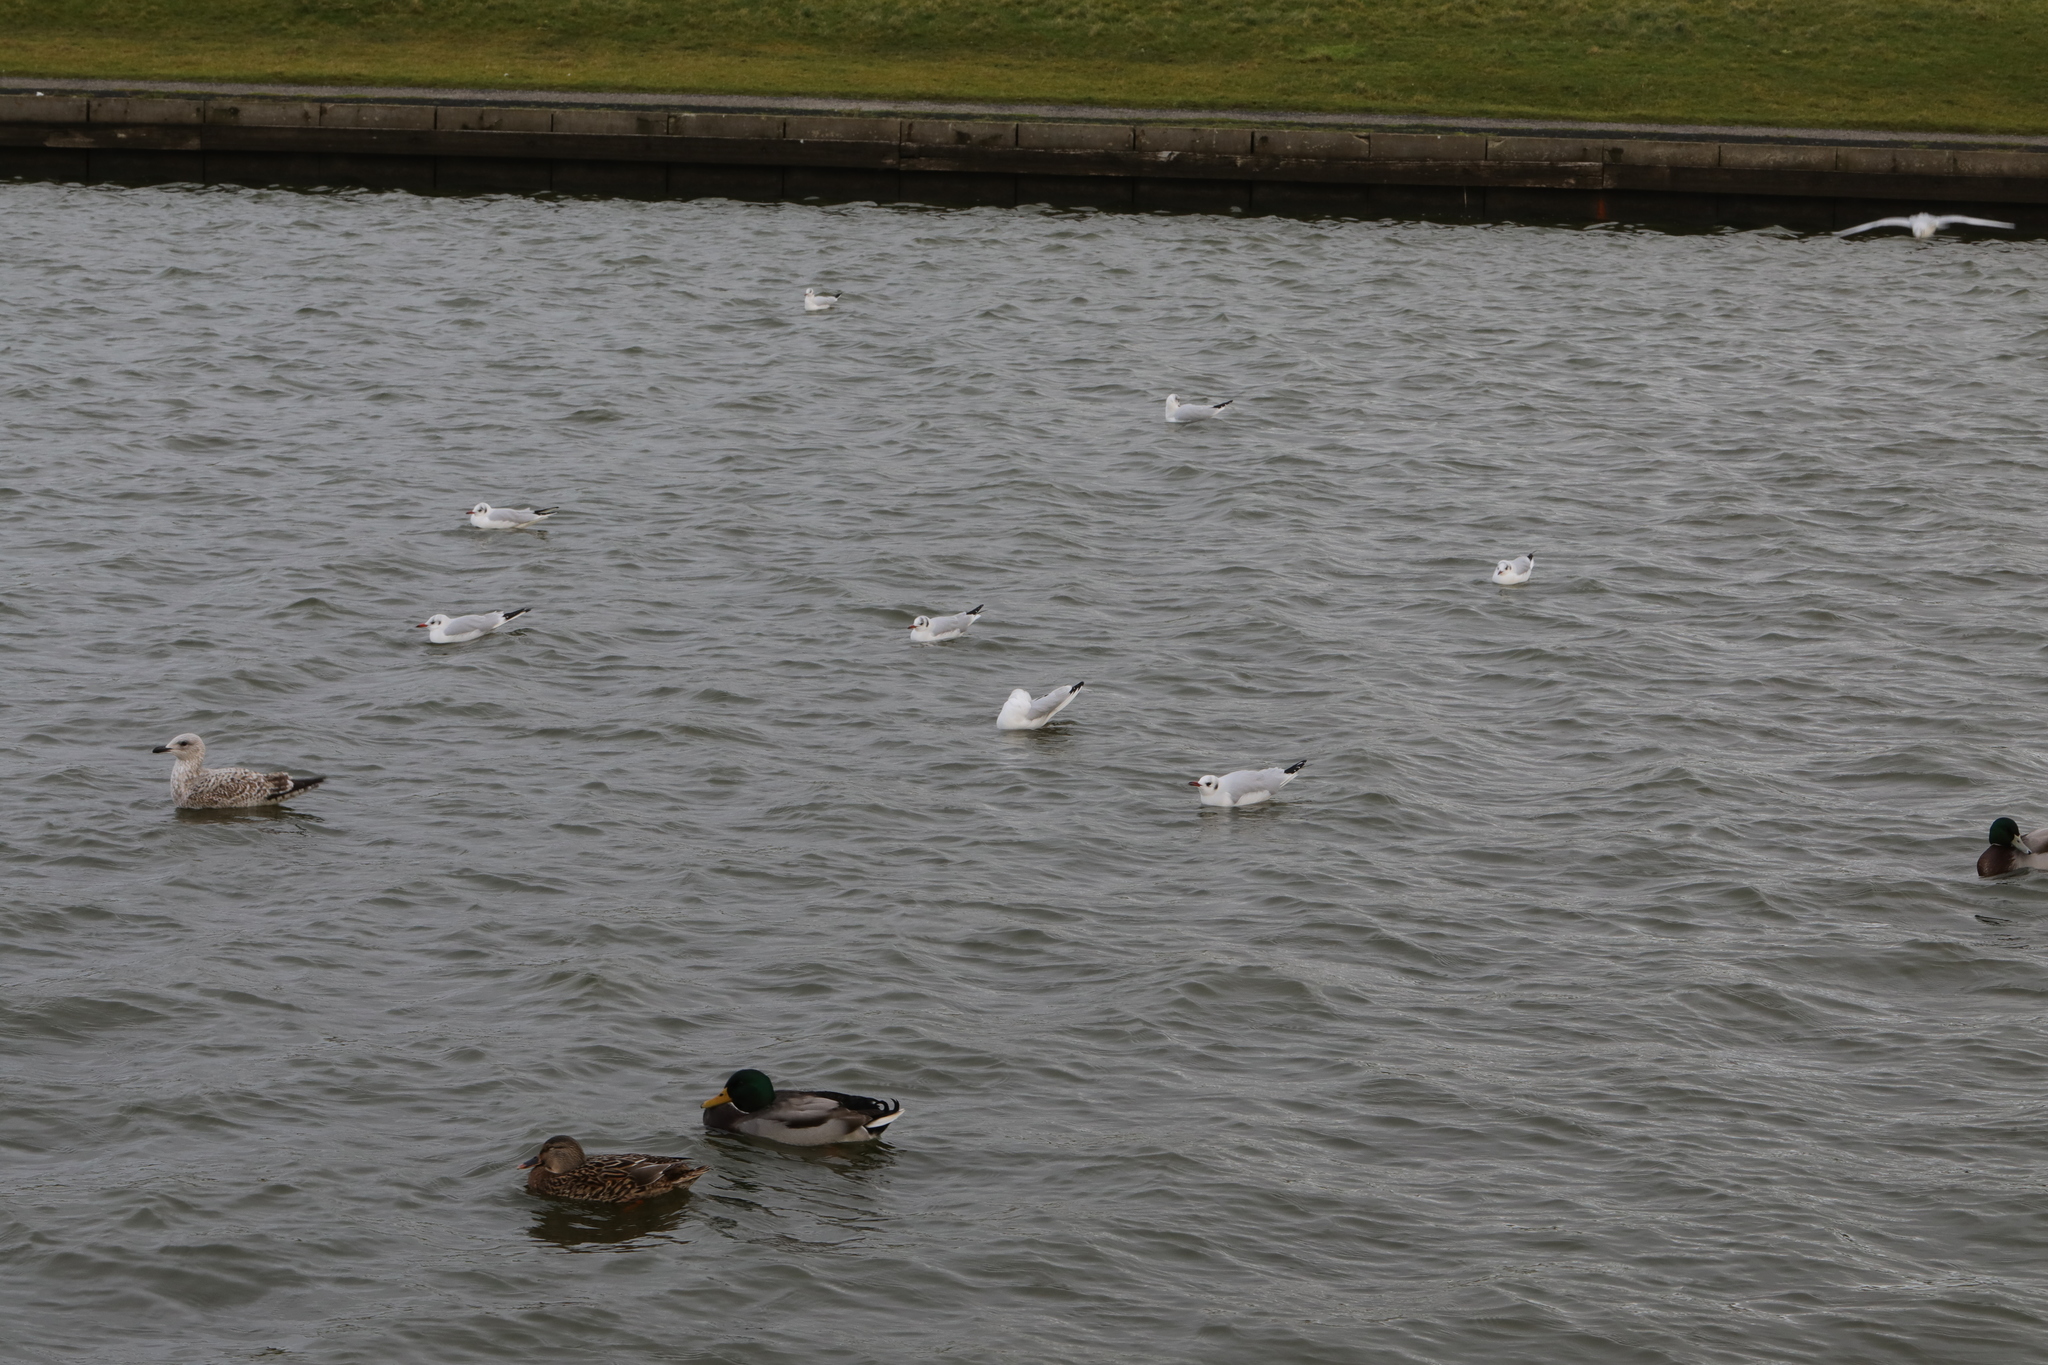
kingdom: Animalia
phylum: Chordata
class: Aves
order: Charadriiformes
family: Laridae
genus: Chroicocephalus
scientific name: Chroicocephalus ridibundus
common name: Black-headed gull
